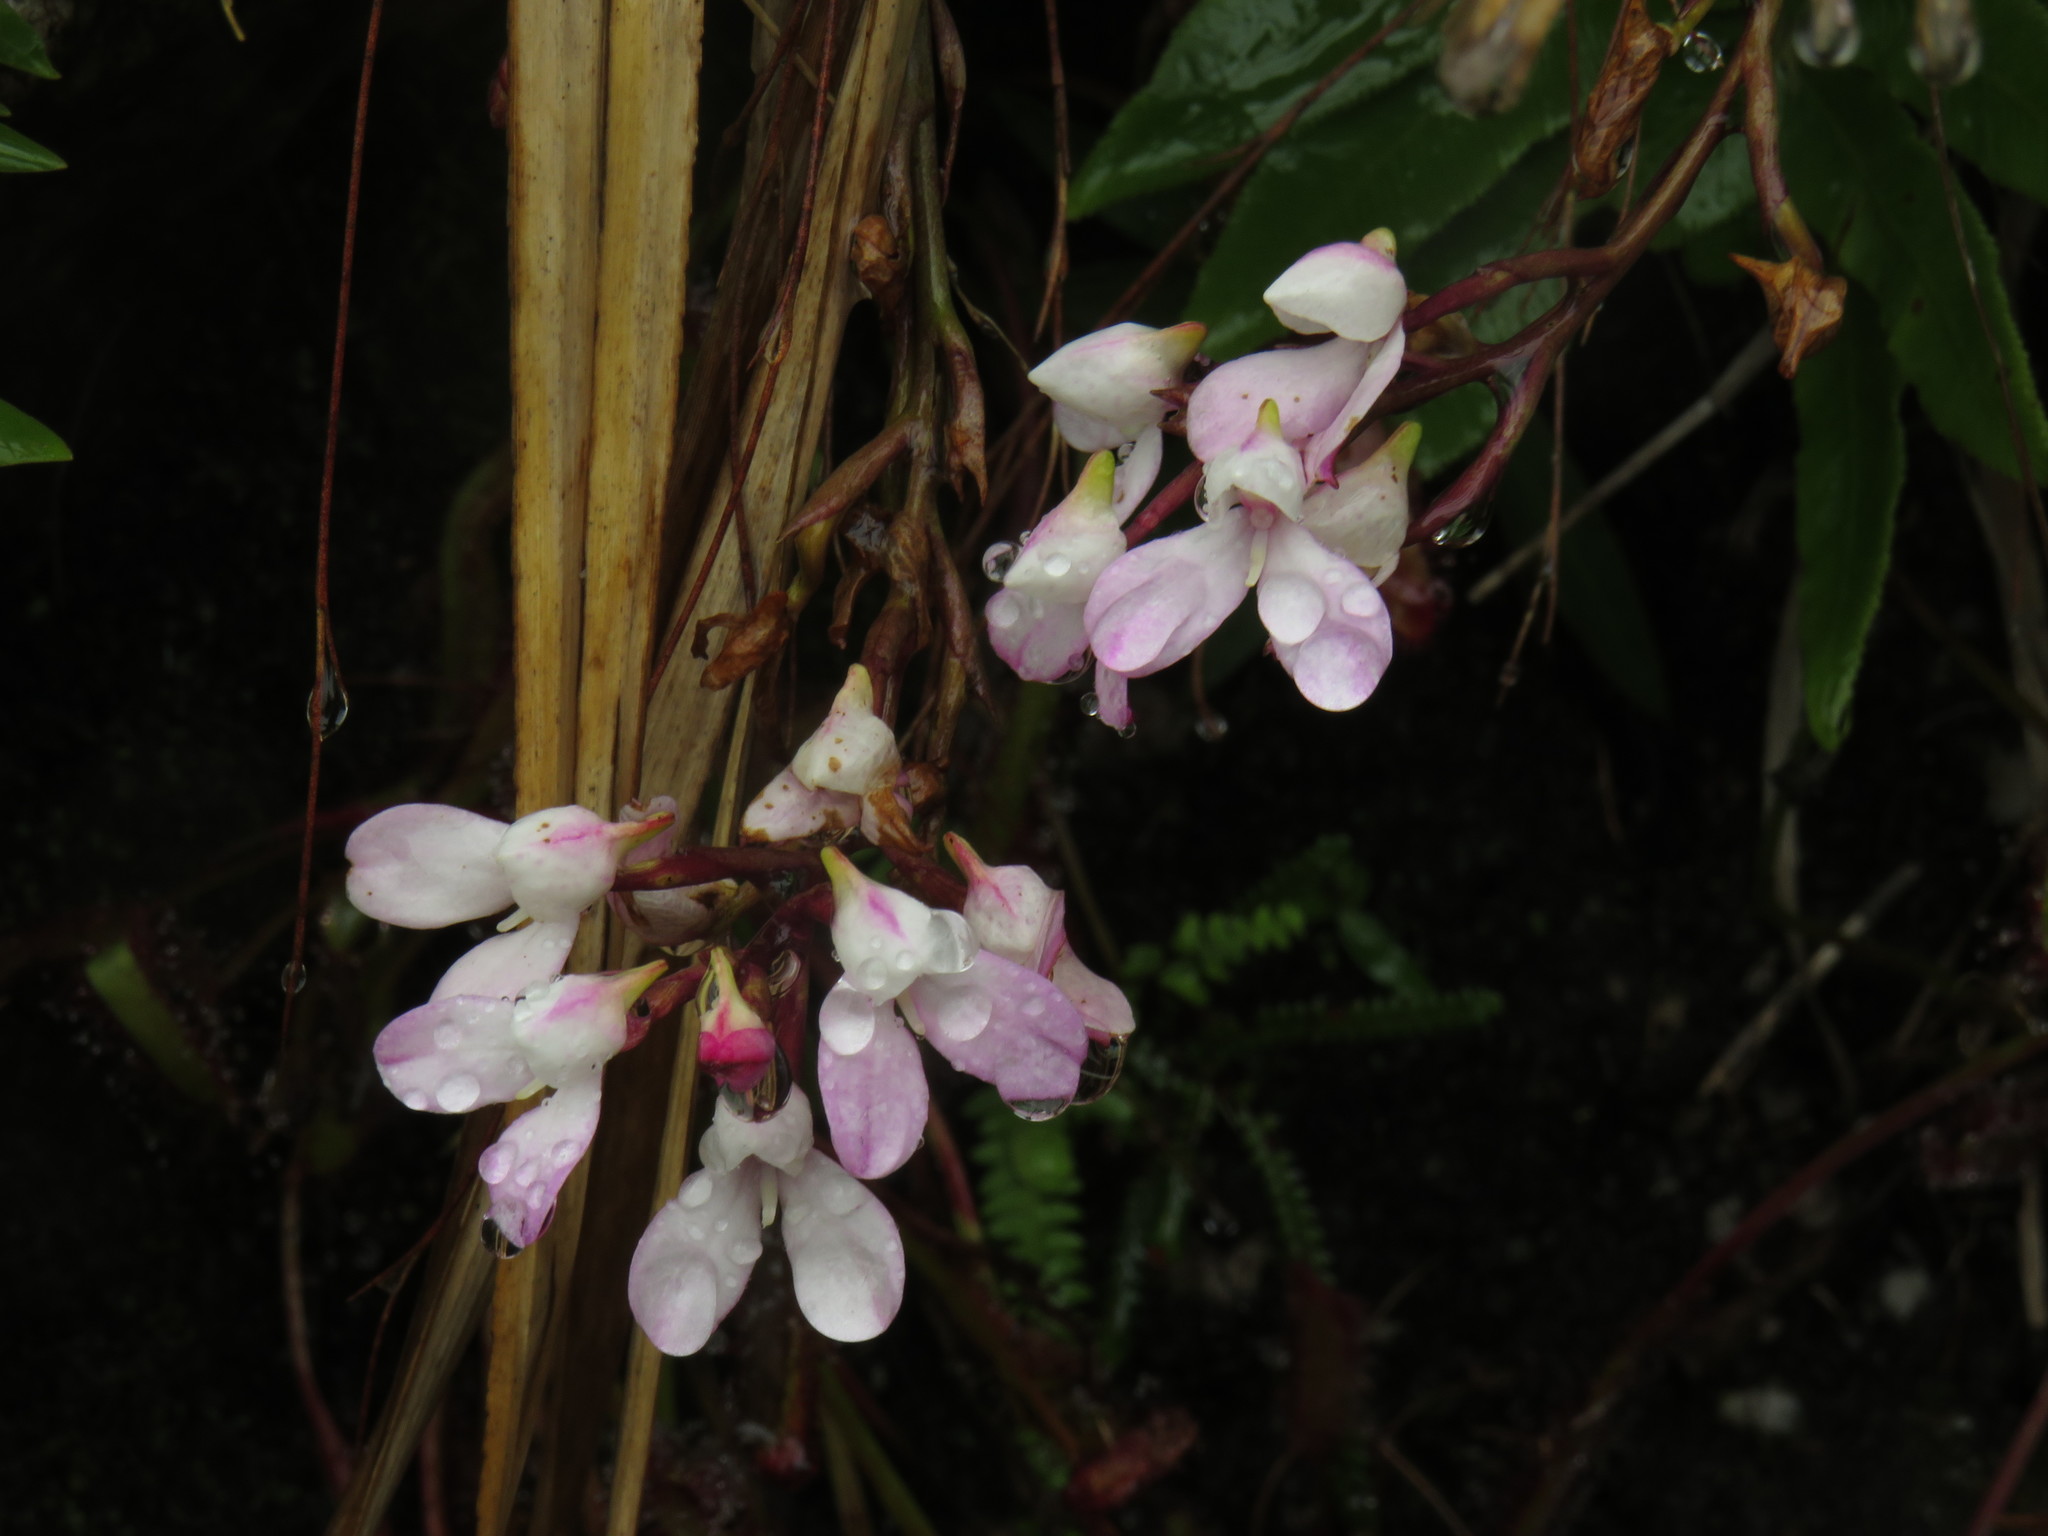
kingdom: Plantae
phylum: Tracheophyta
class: Liliopsida
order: Asparagales
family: Orchidaceae
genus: Disa
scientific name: Disa tripetaloides
